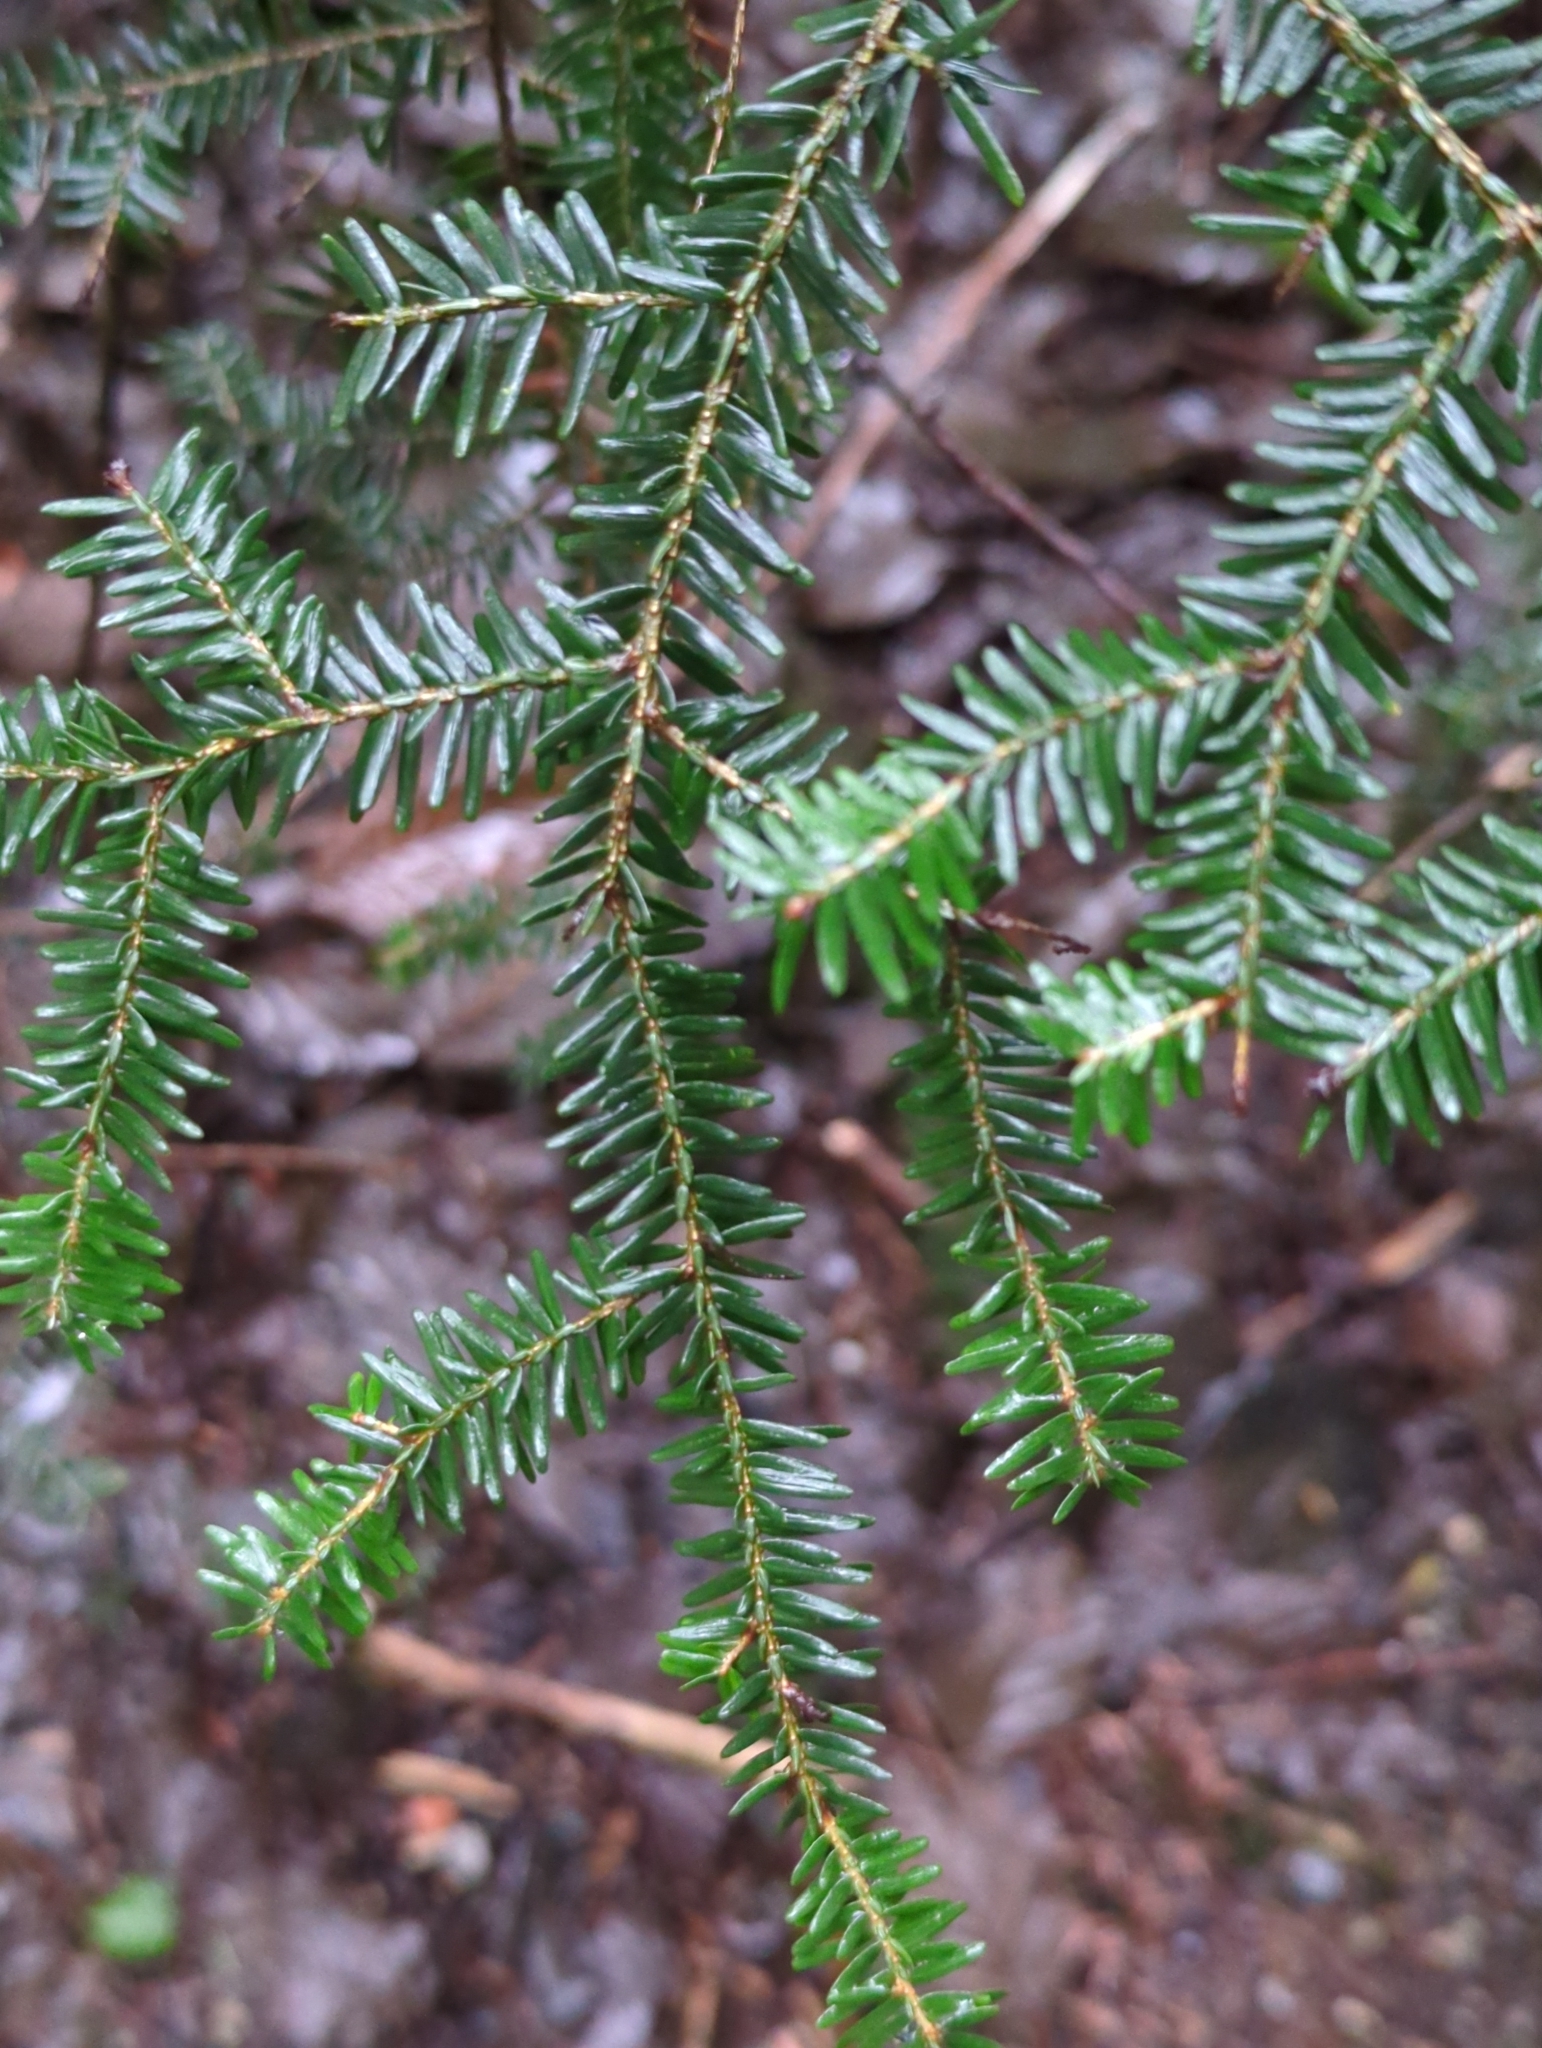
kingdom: Plantae
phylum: Tracheophyta
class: Pinopsida
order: Pinales
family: Pinaceae
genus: Tsuga
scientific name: Tsuga heterophylla
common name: Western hemlock
